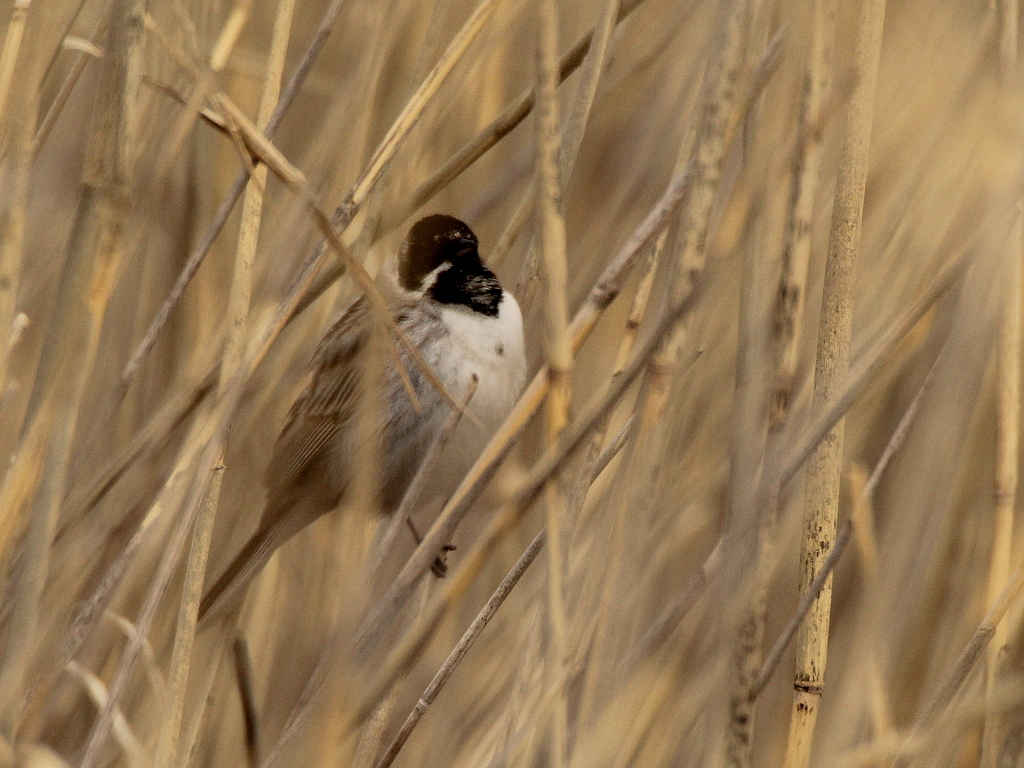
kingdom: Animalia
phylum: Chordata
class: Aves
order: Passeriformes
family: Emberizidae
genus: Emberiza
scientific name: Emberiza schoeniclus
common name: Reed bunting
